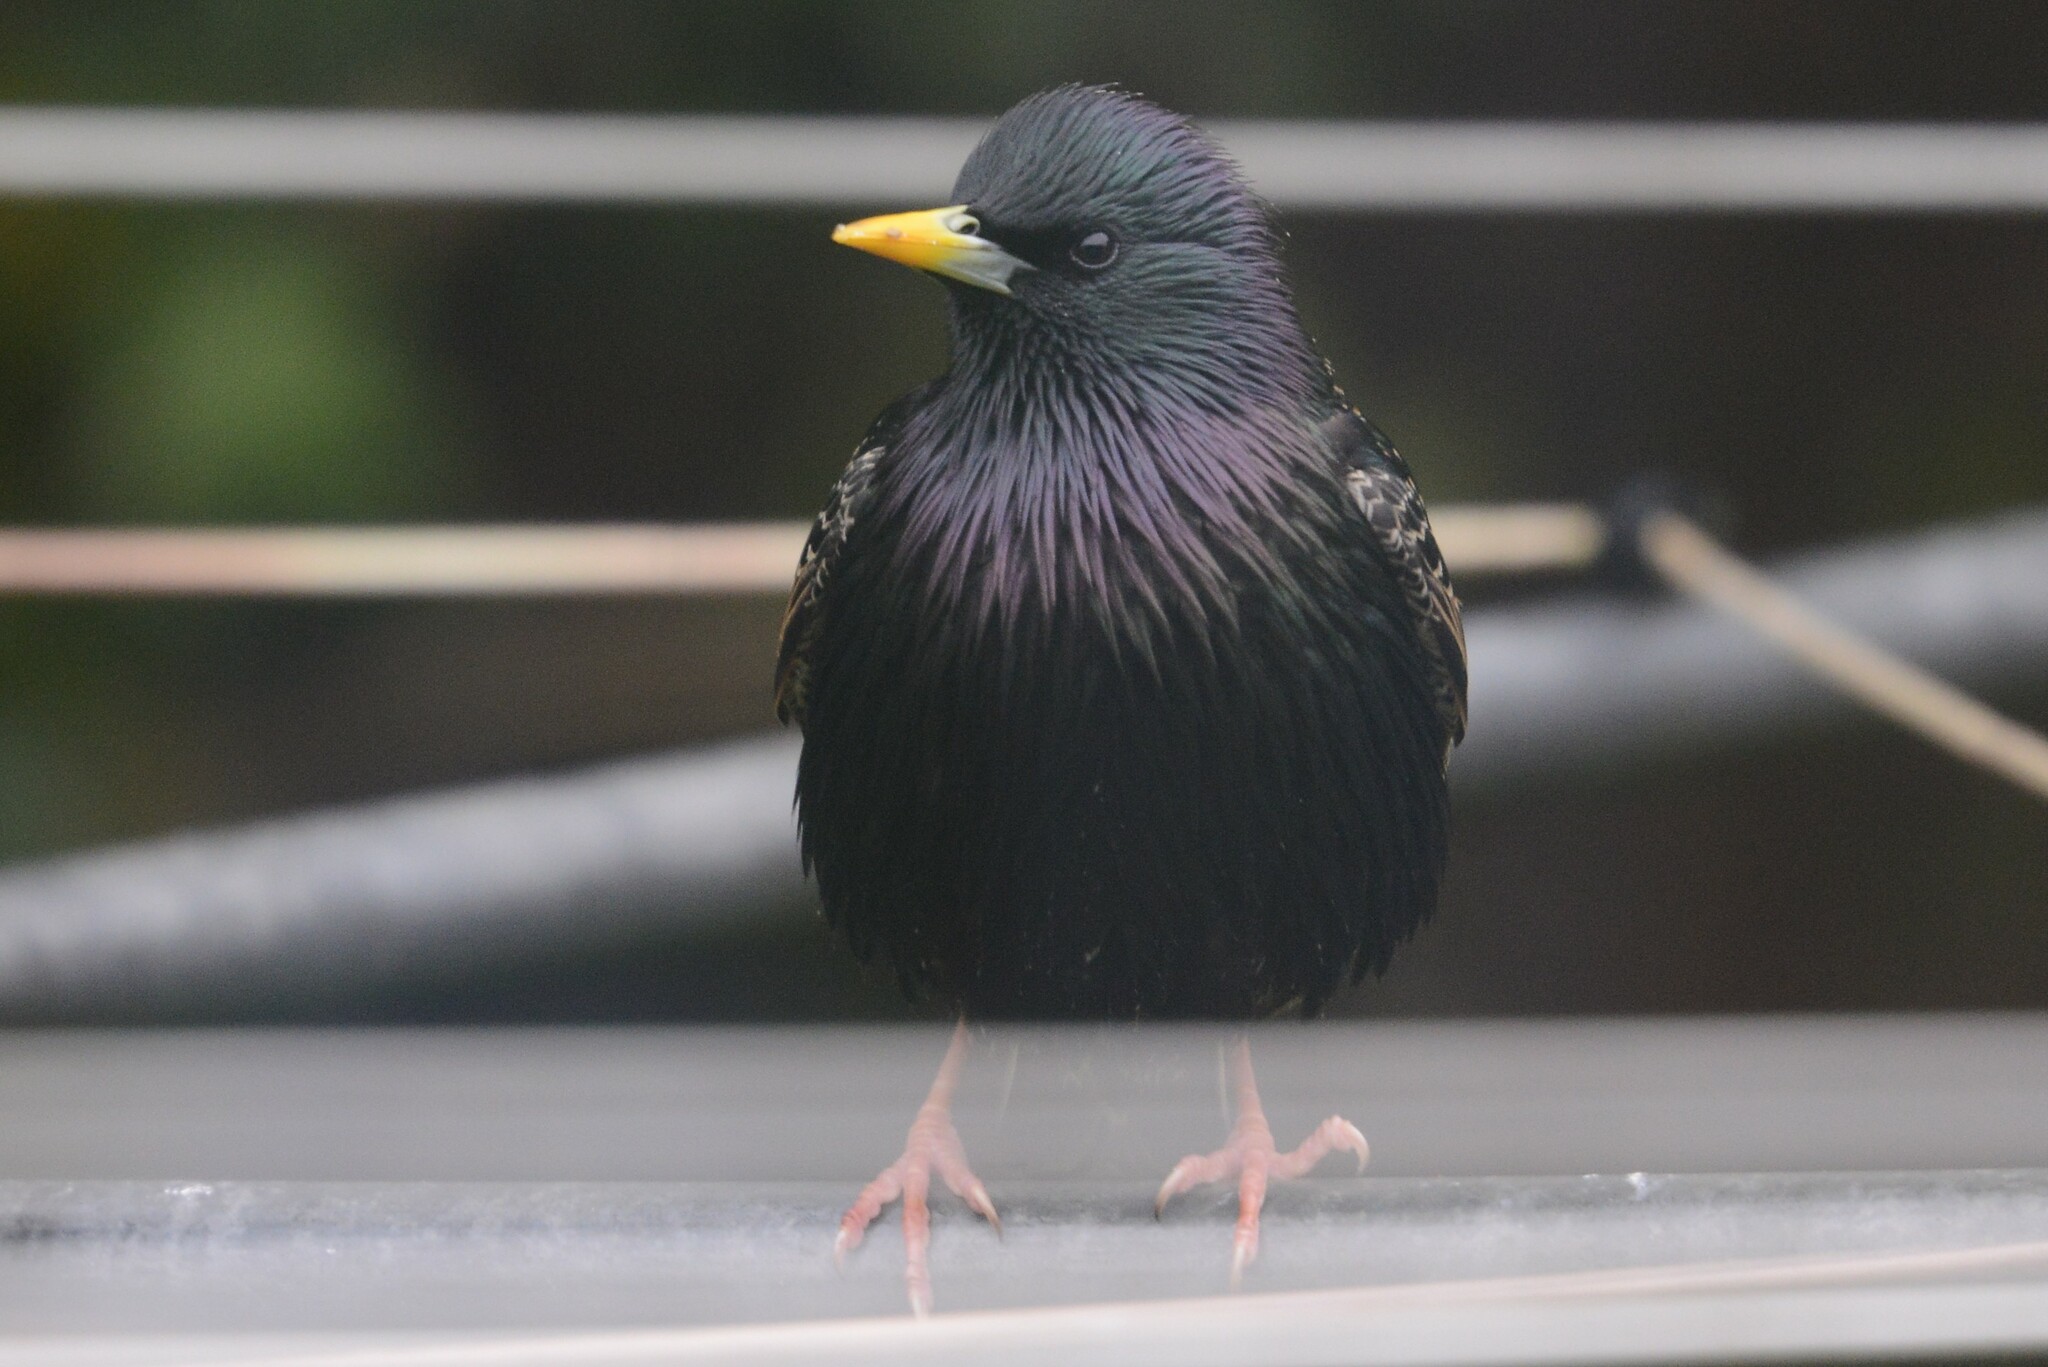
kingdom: Animalia
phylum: Chordata
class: Aves
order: Passeriformes
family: Sturnidae
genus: Sturnus
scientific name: Sturnus vulgaris
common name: Common starling
